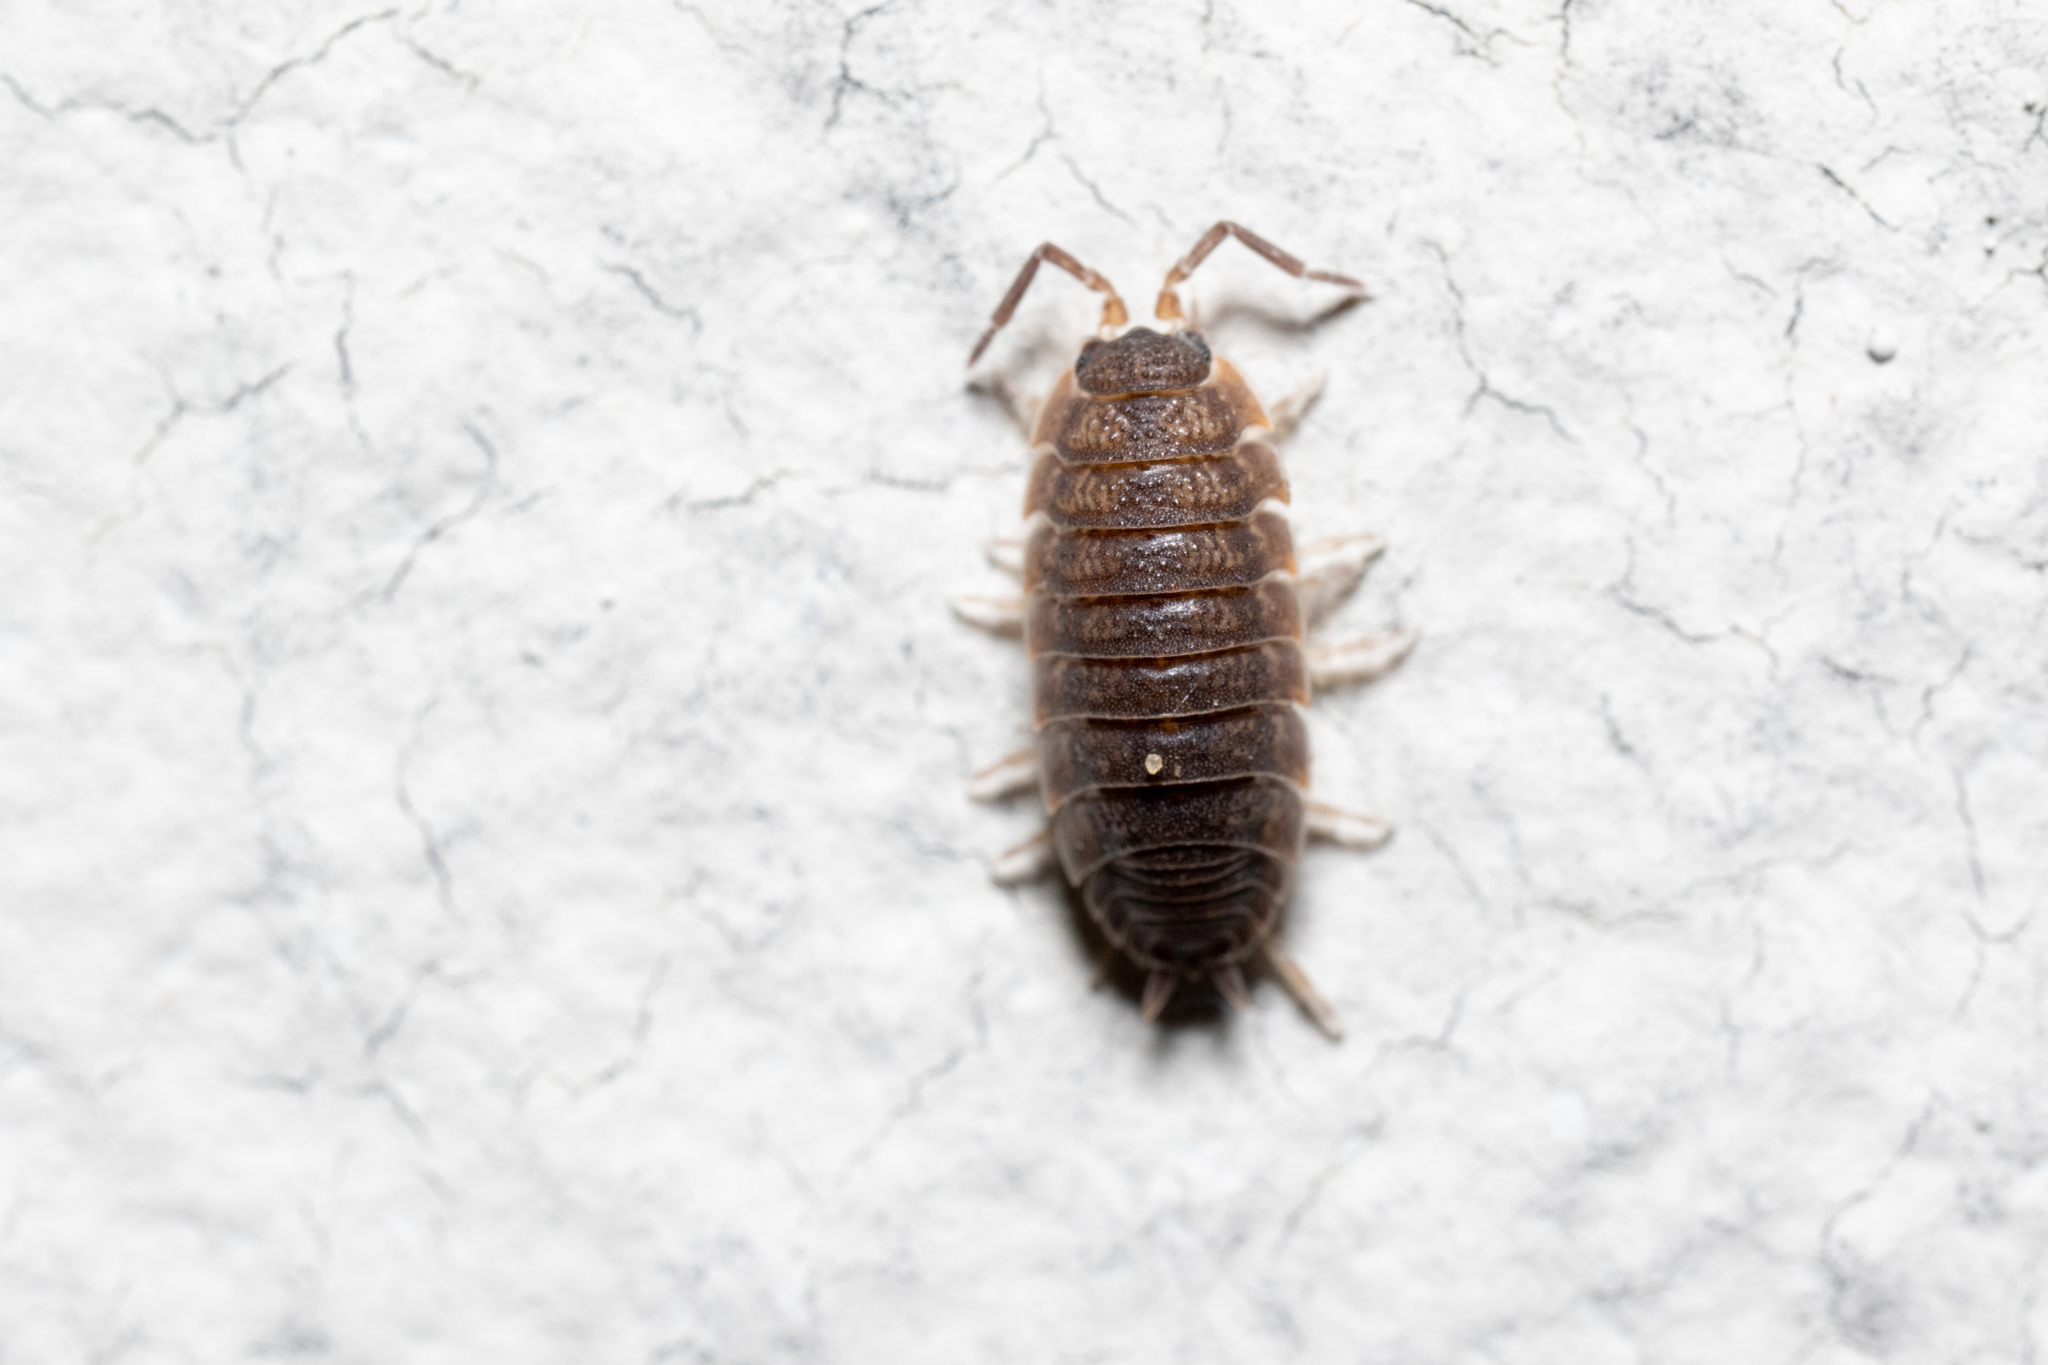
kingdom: Animalia
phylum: Arthropoda
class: Malacostraca
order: Isopoda
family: Porcellionidae
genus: Porcellio
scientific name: Porcellio scaber
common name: Common rough woodlouse
